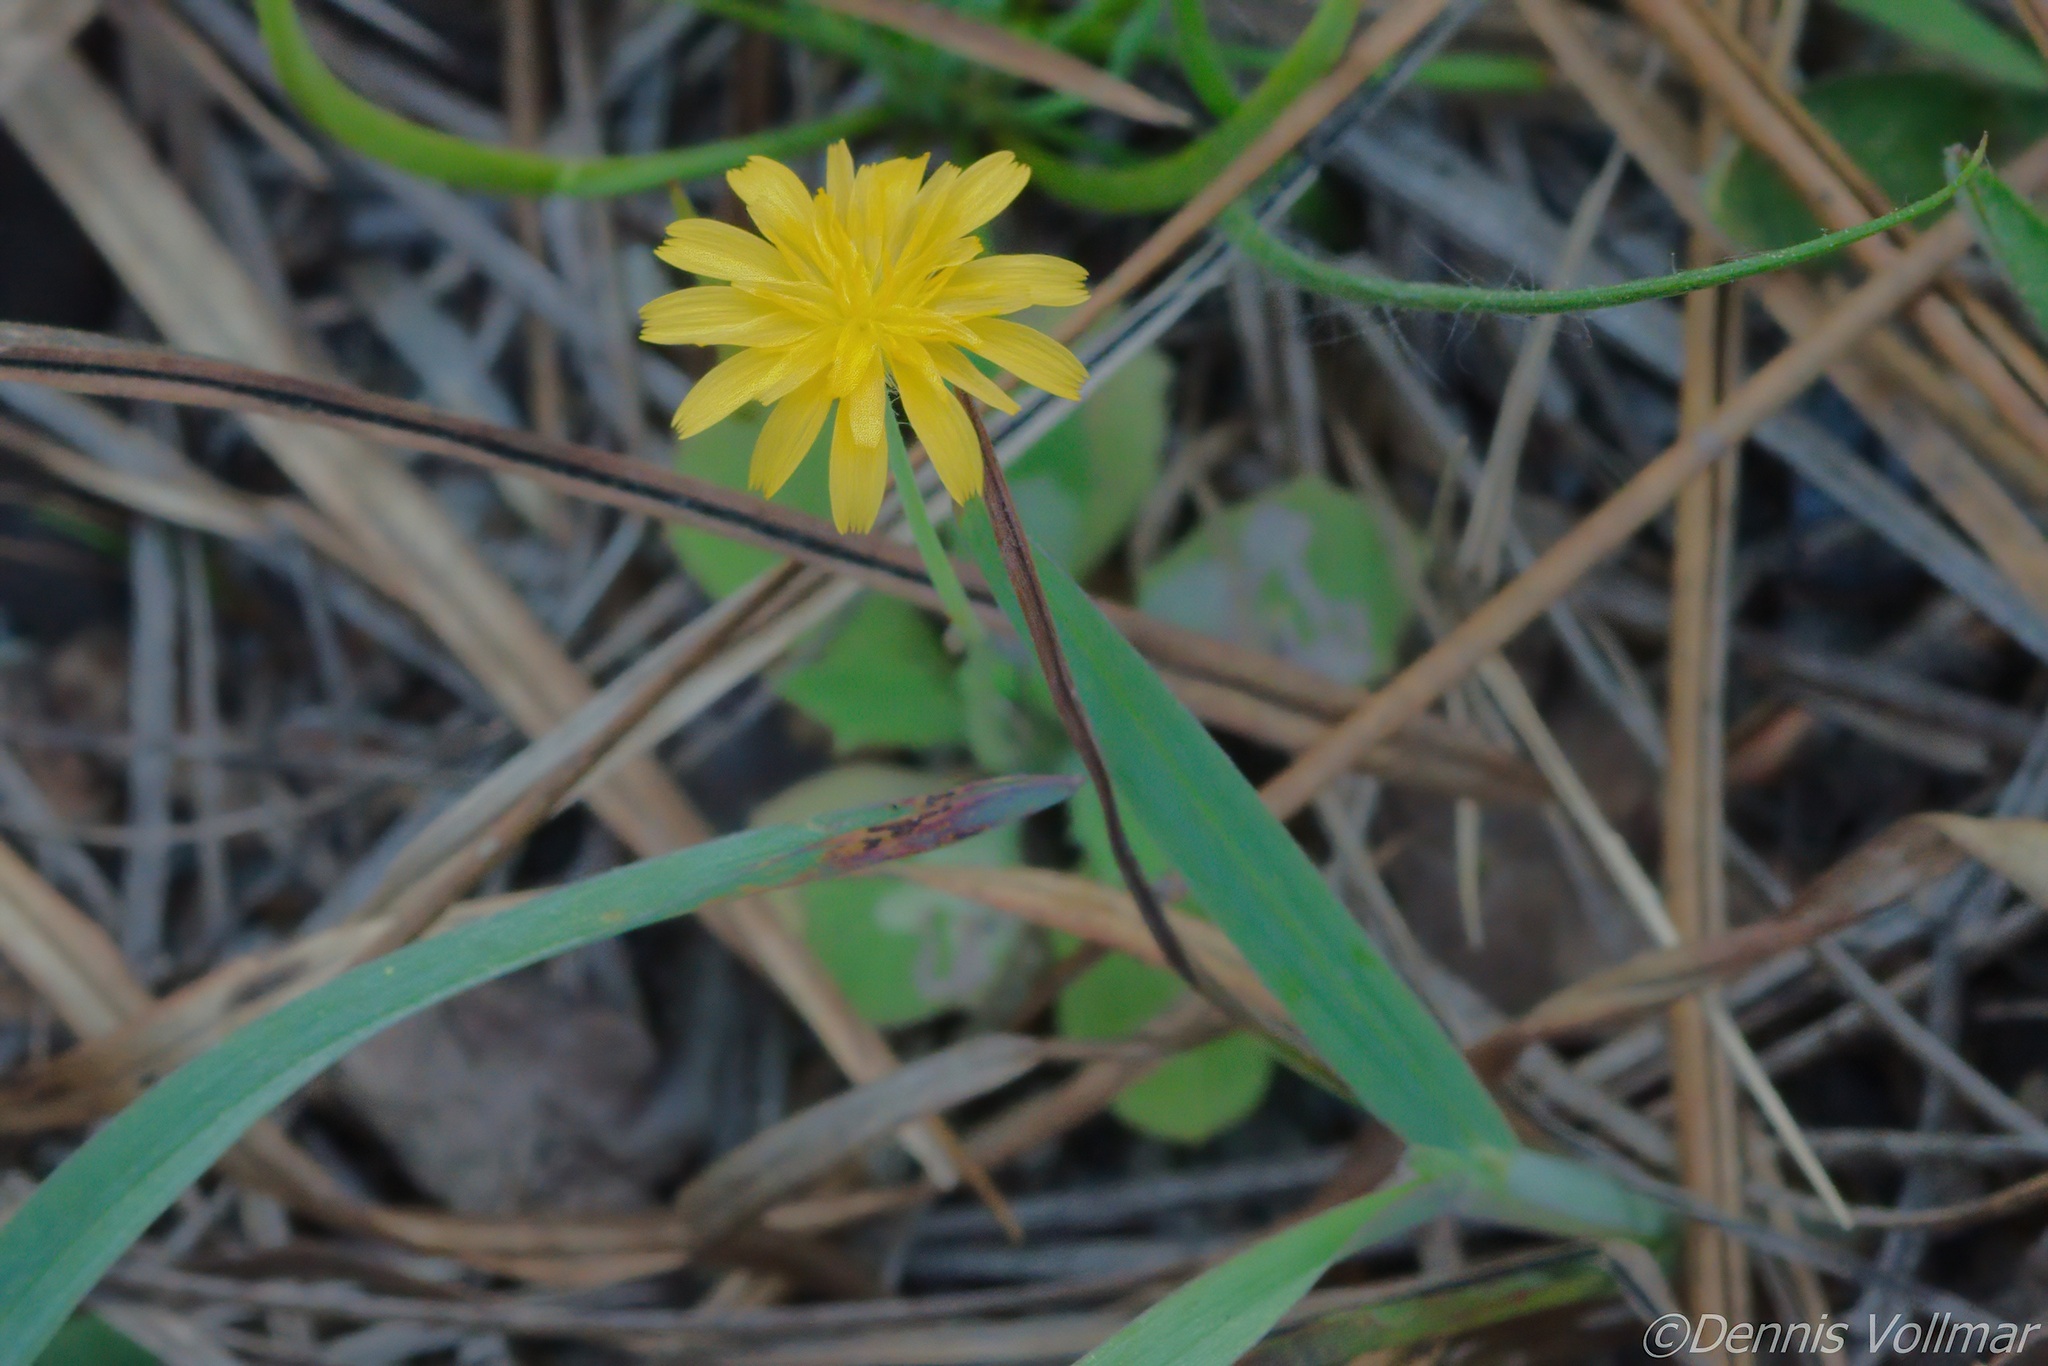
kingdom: Plantae
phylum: Tracheophyta
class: Magnoliopsida
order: Asterales
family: Asteraceae
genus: Krigia
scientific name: Krigia virginica
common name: Virginia dwarf-dandelion
